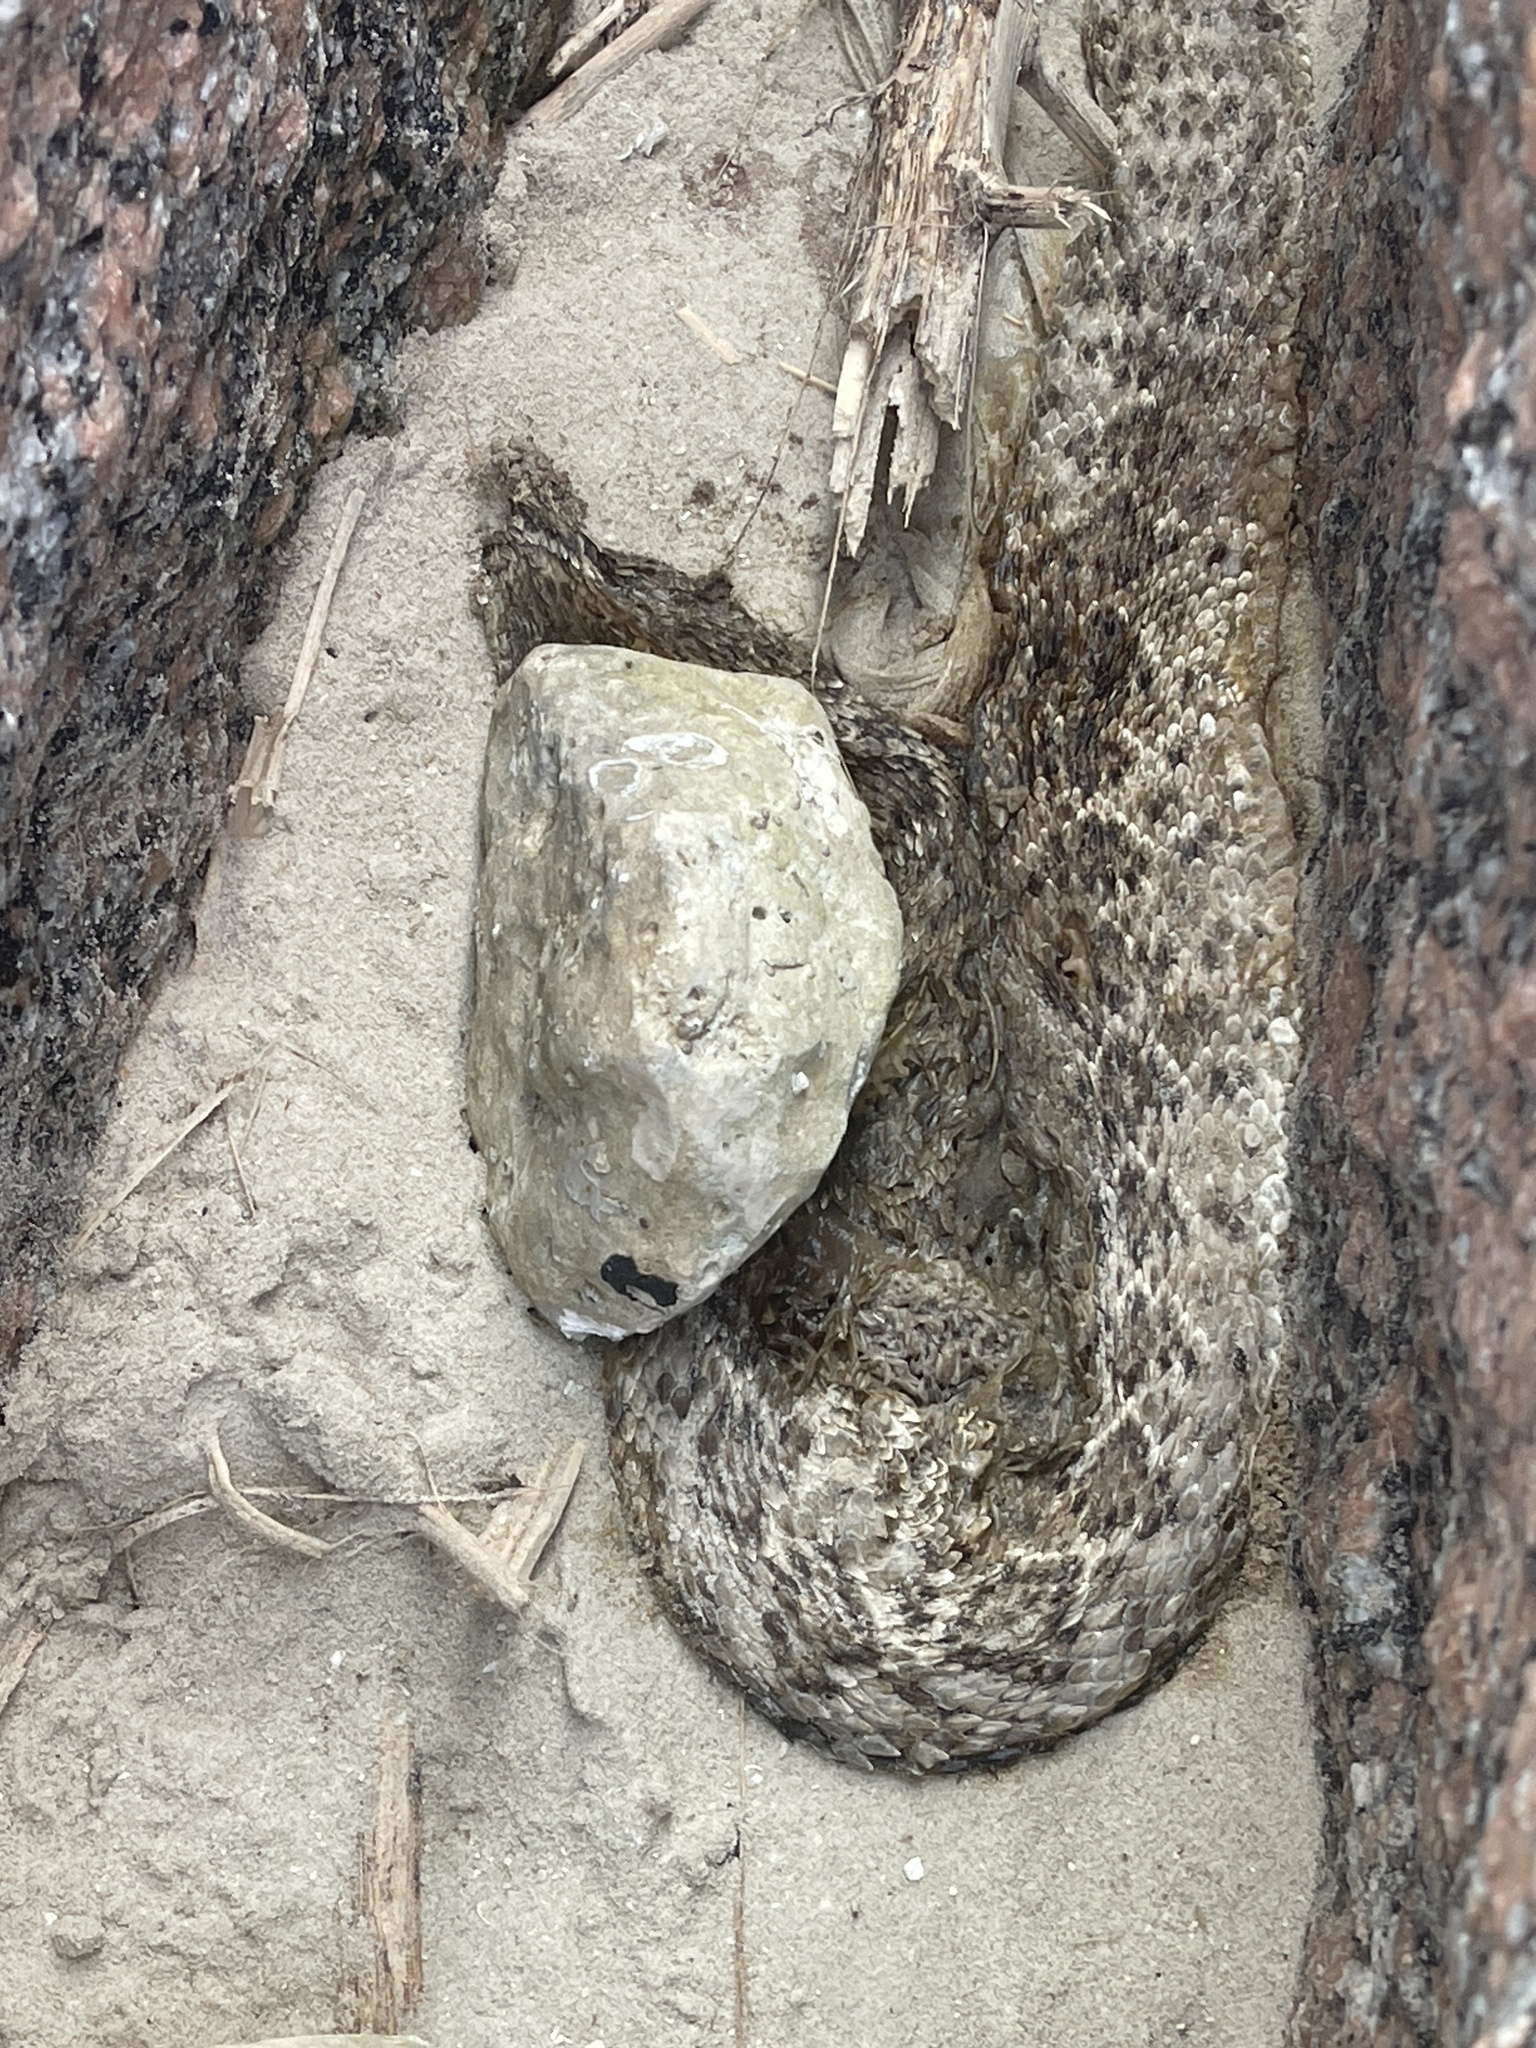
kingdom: Animalia
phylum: Chordata
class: Squamata
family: Viperidae
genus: Crotalus
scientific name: Crotalus atrox
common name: Western diamond-backed rattlesnake
